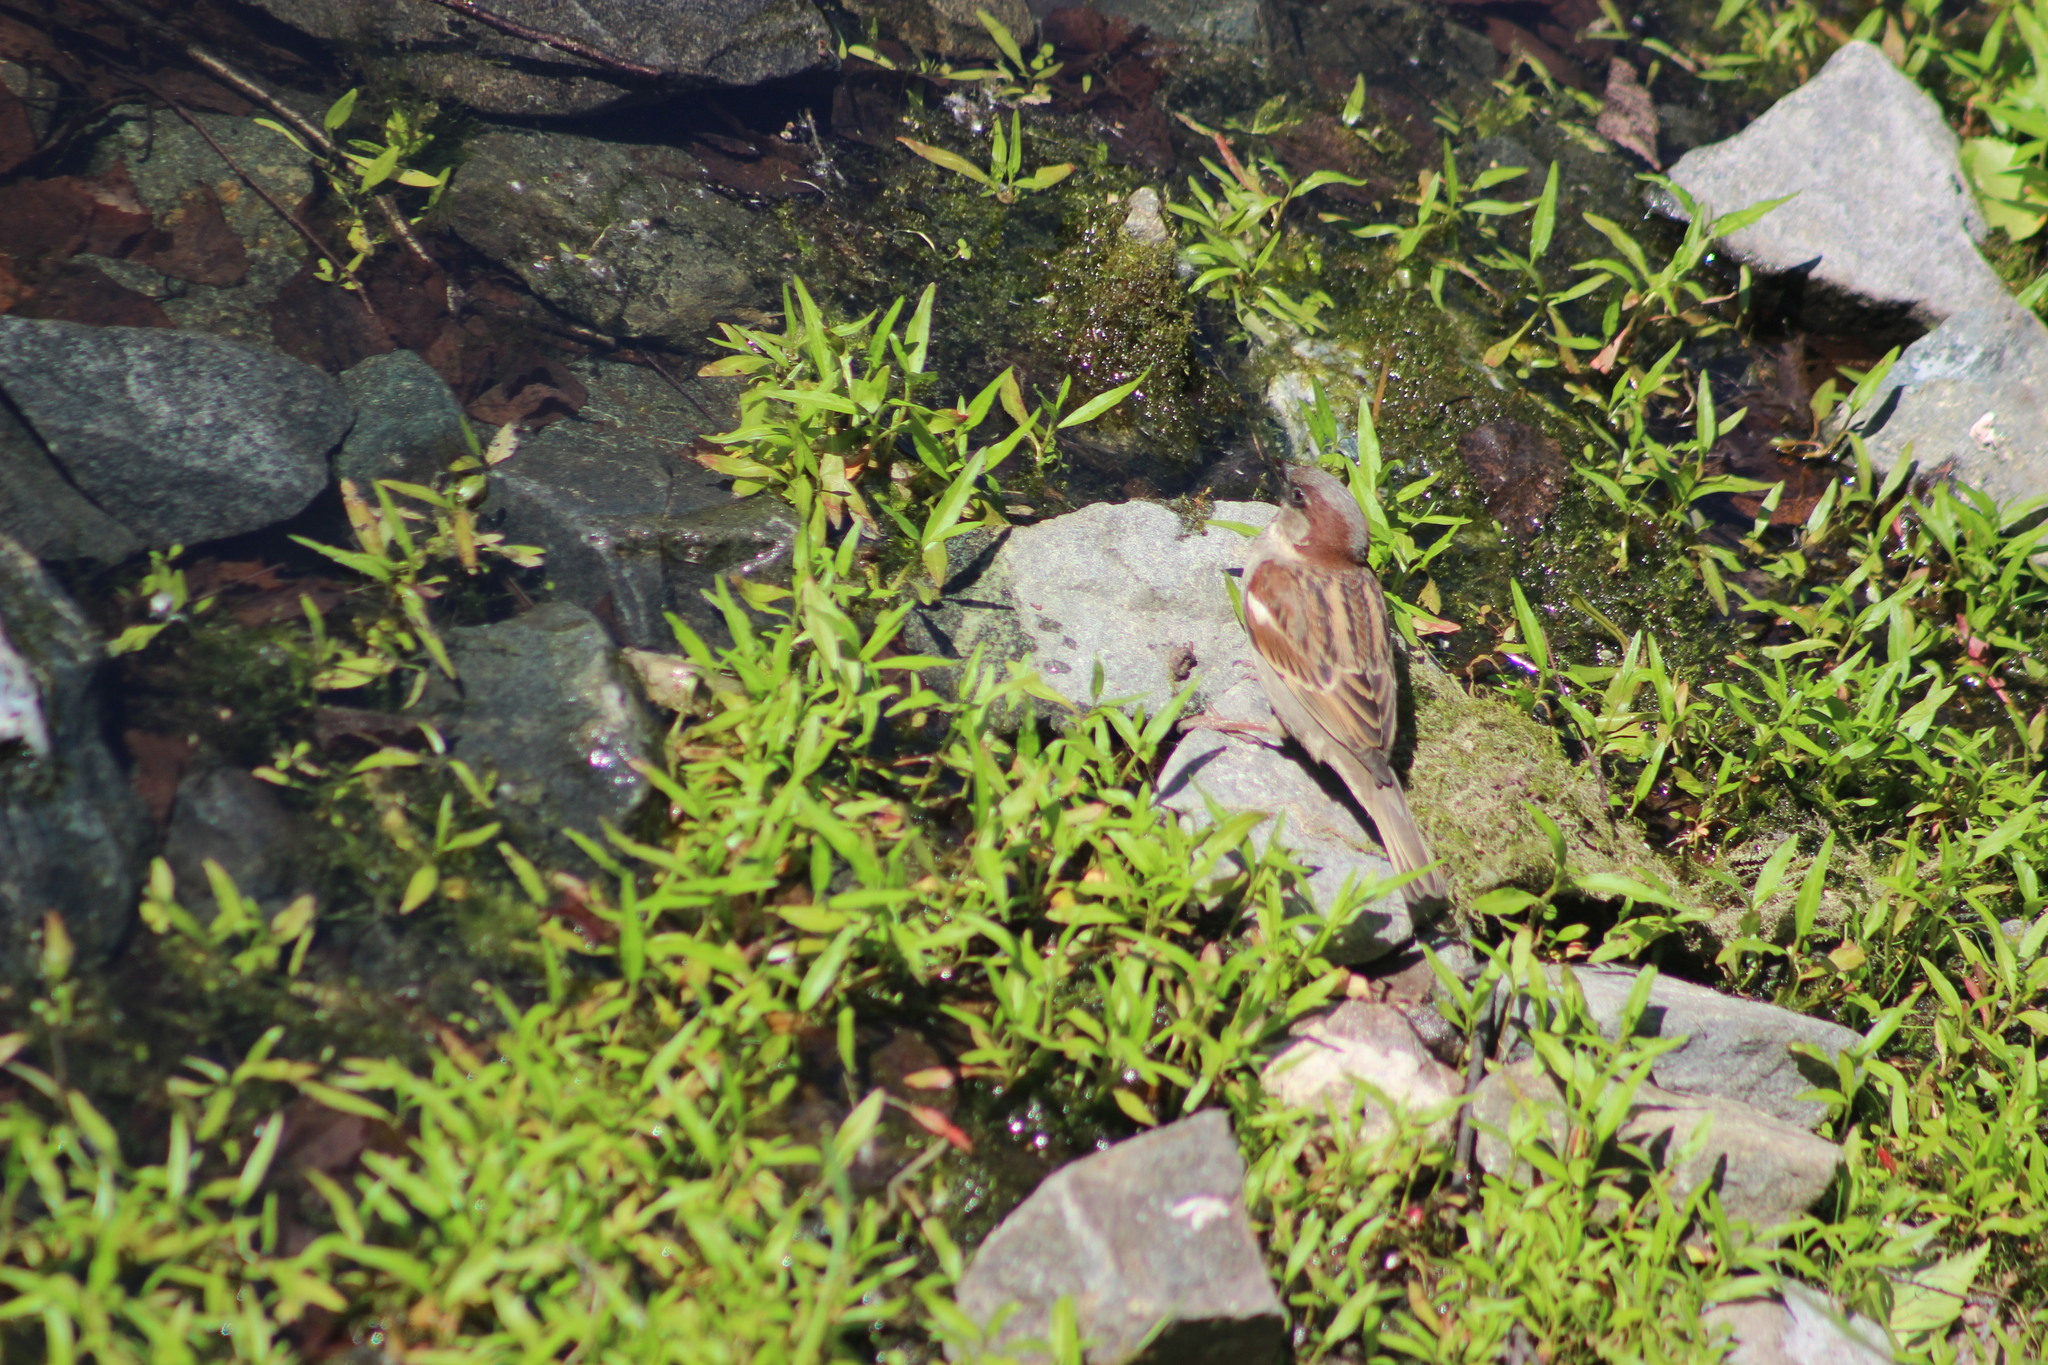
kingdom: Animalia
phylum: Chordata
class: Aves
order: Passeriformes
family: Passeridae
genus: Passer
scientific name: Passer domesticus
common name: House sparrow
